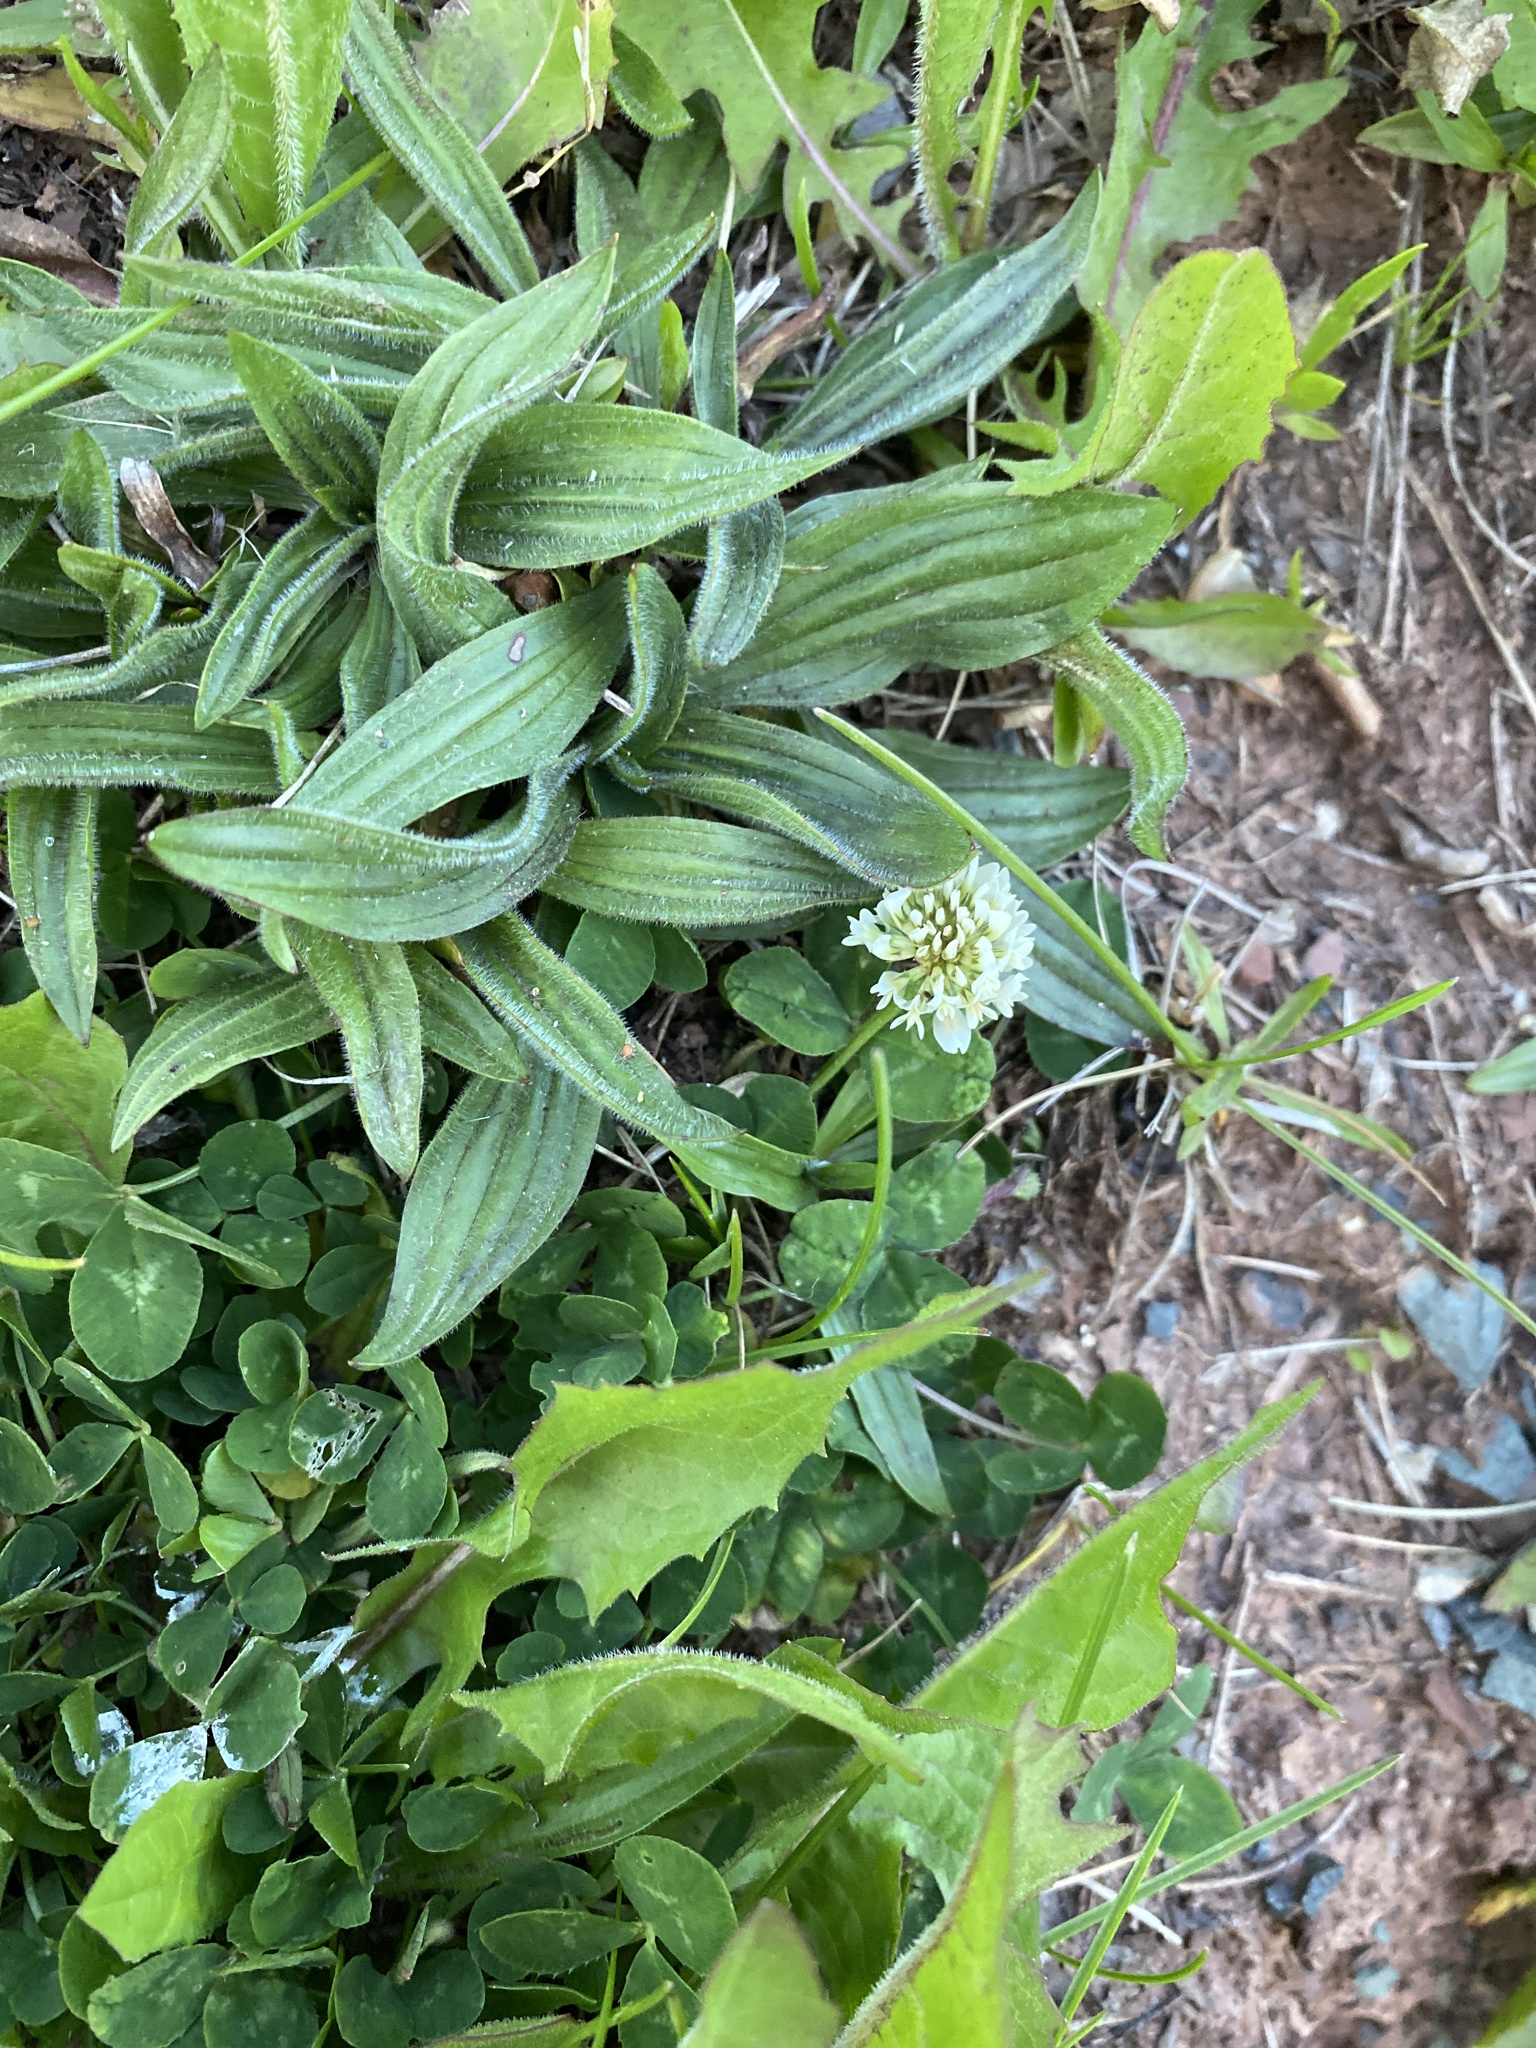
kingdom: Plantae
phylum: Tracheophyta
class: Magnoliopsida
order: Fabales
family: Fabaceae
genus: Trifolium
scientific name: Trifolium repens
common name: White clover
